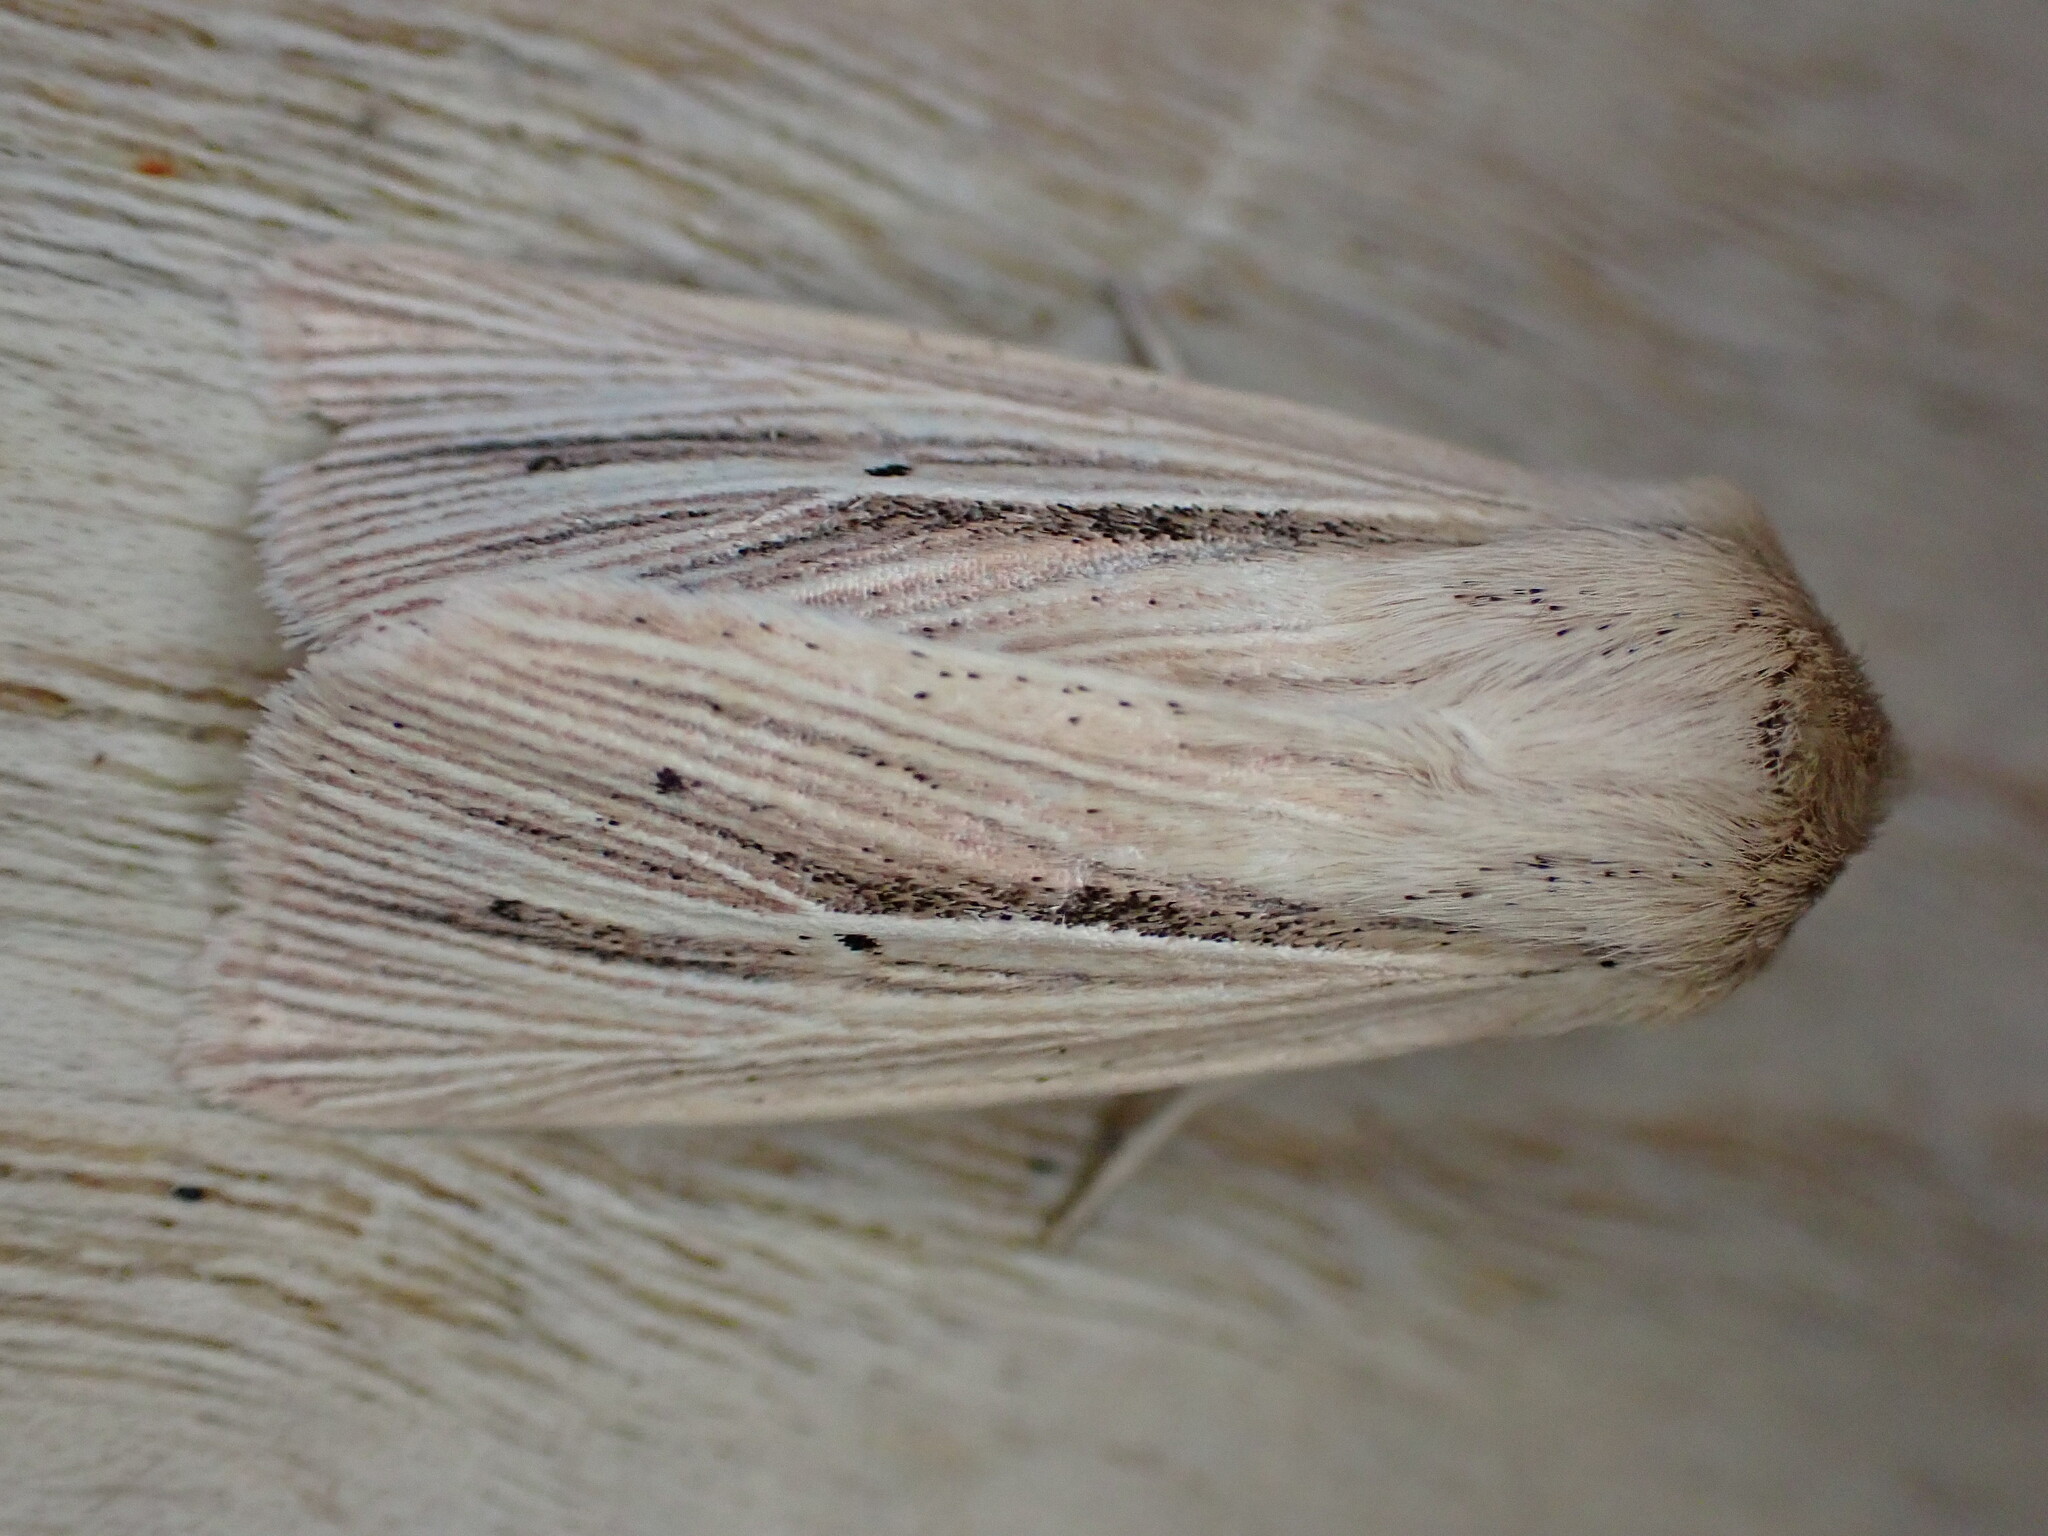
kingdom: Animalia
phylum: Arthropoda
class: Insecta
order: Lepidoptera
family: Noctuidae
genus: Mythimna
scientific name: Mythimna impura
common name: Smoky wainscot
